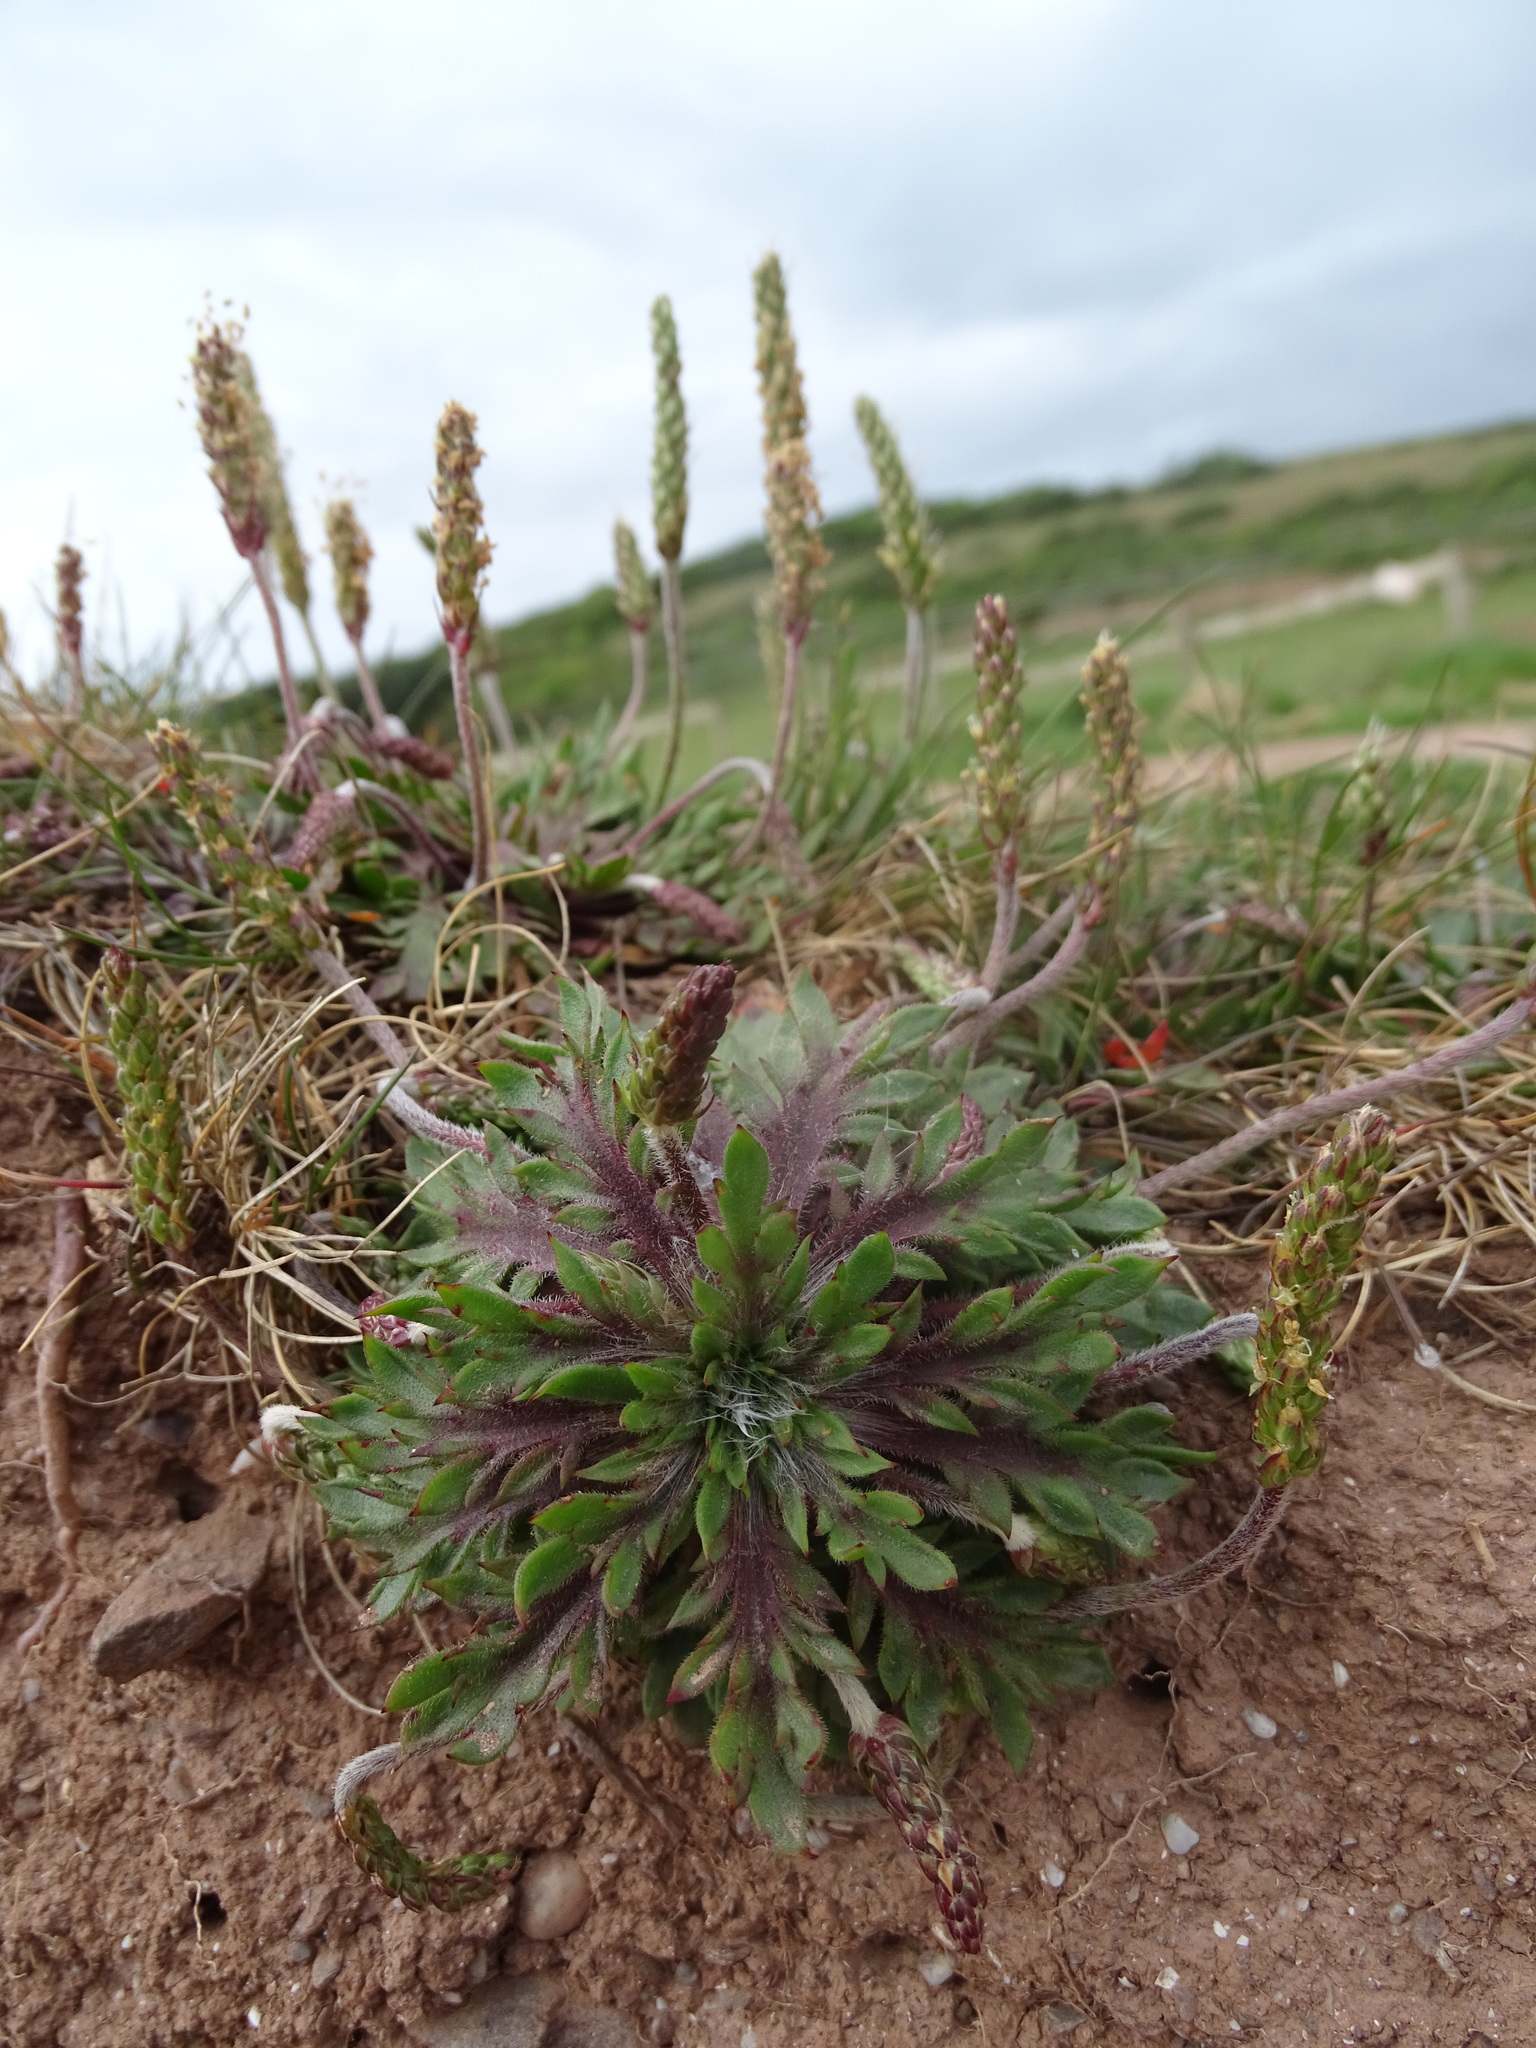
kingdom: Plantae
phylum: Tracheophyta
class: Magnoliopsida
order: Lamiales
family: Plantaginaceae
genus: Plantago
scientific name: Plantago coronopus
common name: Buck's-horn plantain
